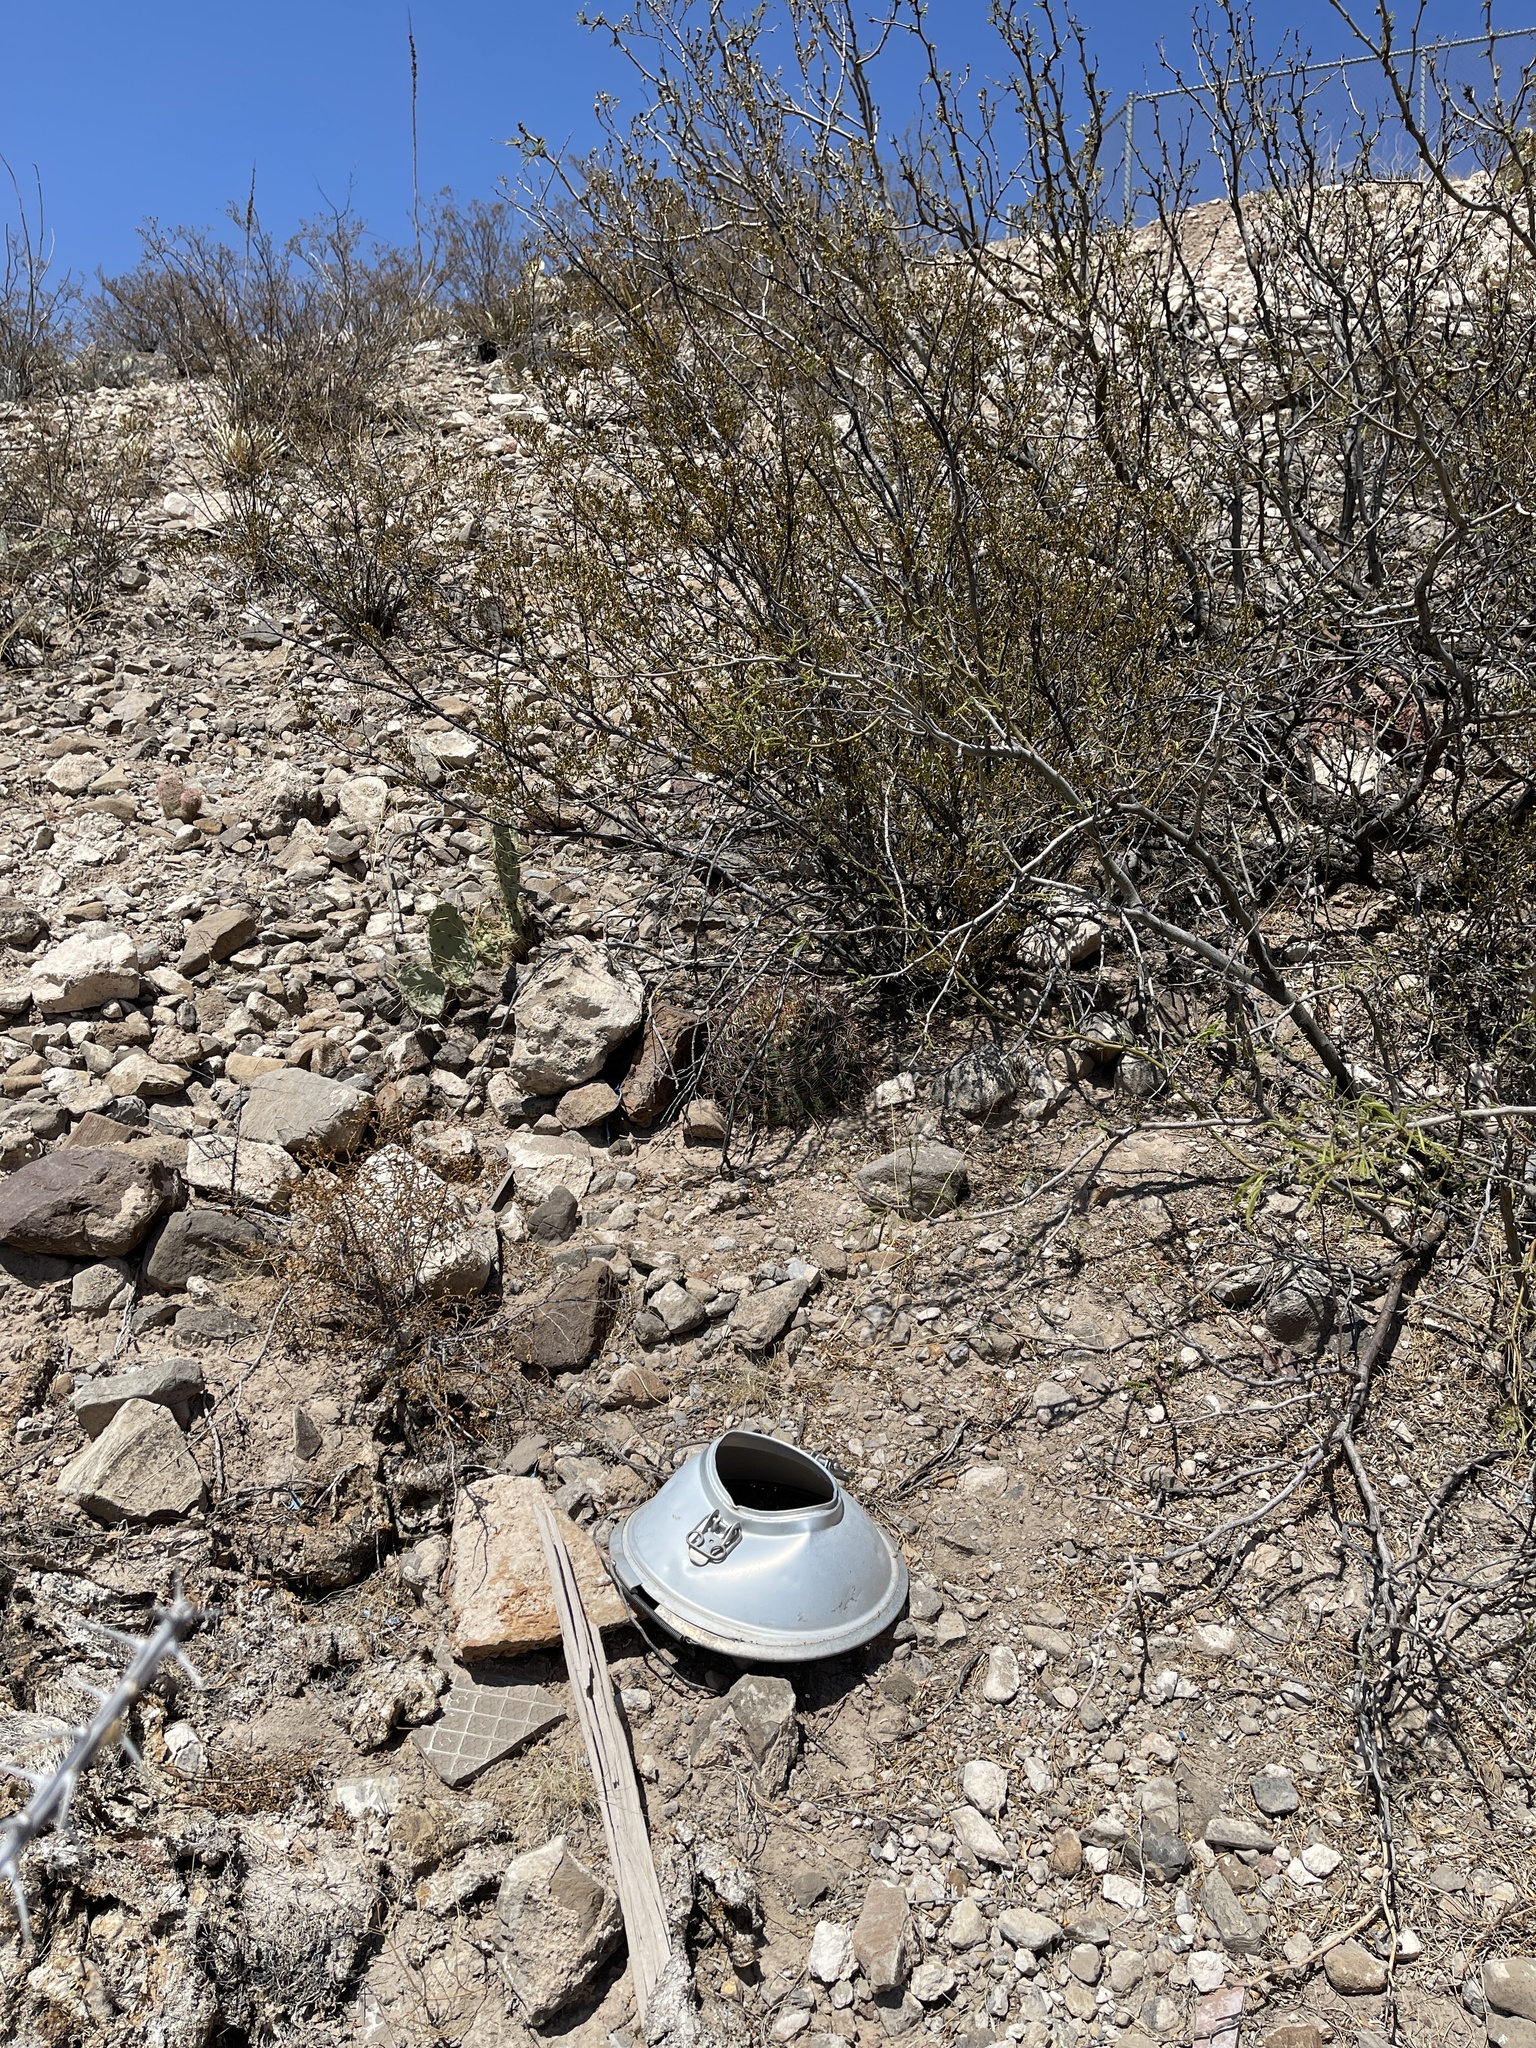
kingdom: Plantae
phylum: Tracheophyta
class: Magnoliopsida
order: Caryophyllales
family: Cactaceae
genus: Ferocactus
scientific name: Ferocactus wislizeni
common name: Candy barrel cactus
